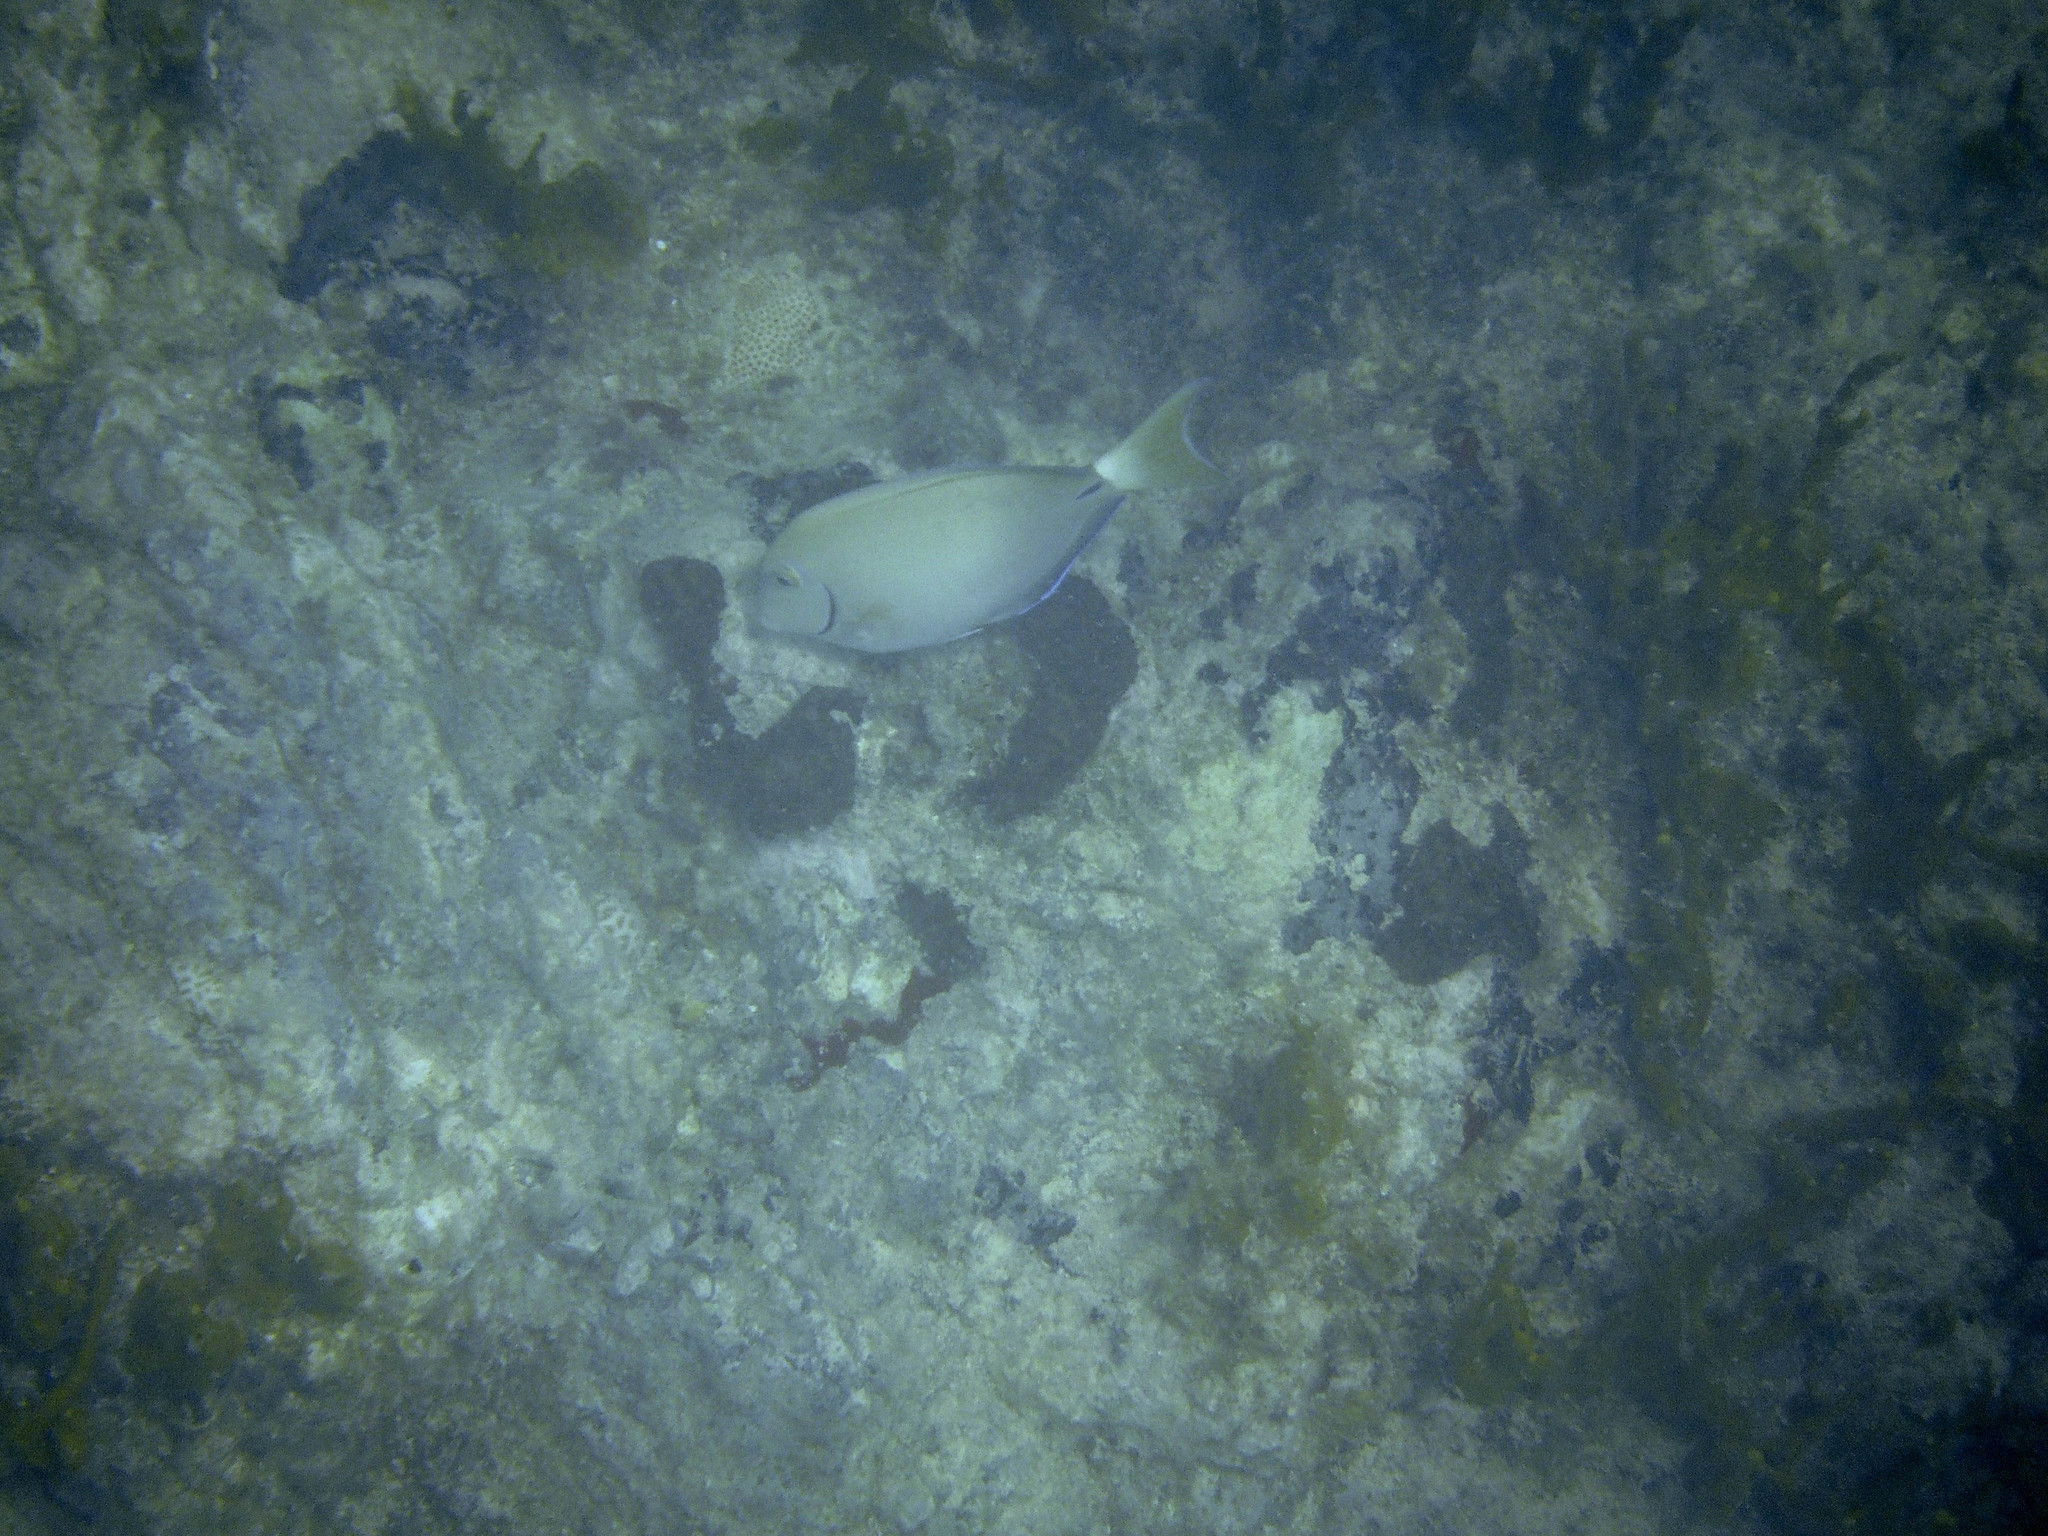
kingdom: Animalia
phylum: Chordata
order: Perciformes
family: Acanthuridae
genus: Acanthurus
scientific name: Acanthurus chirurgus
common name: Doctorfish
